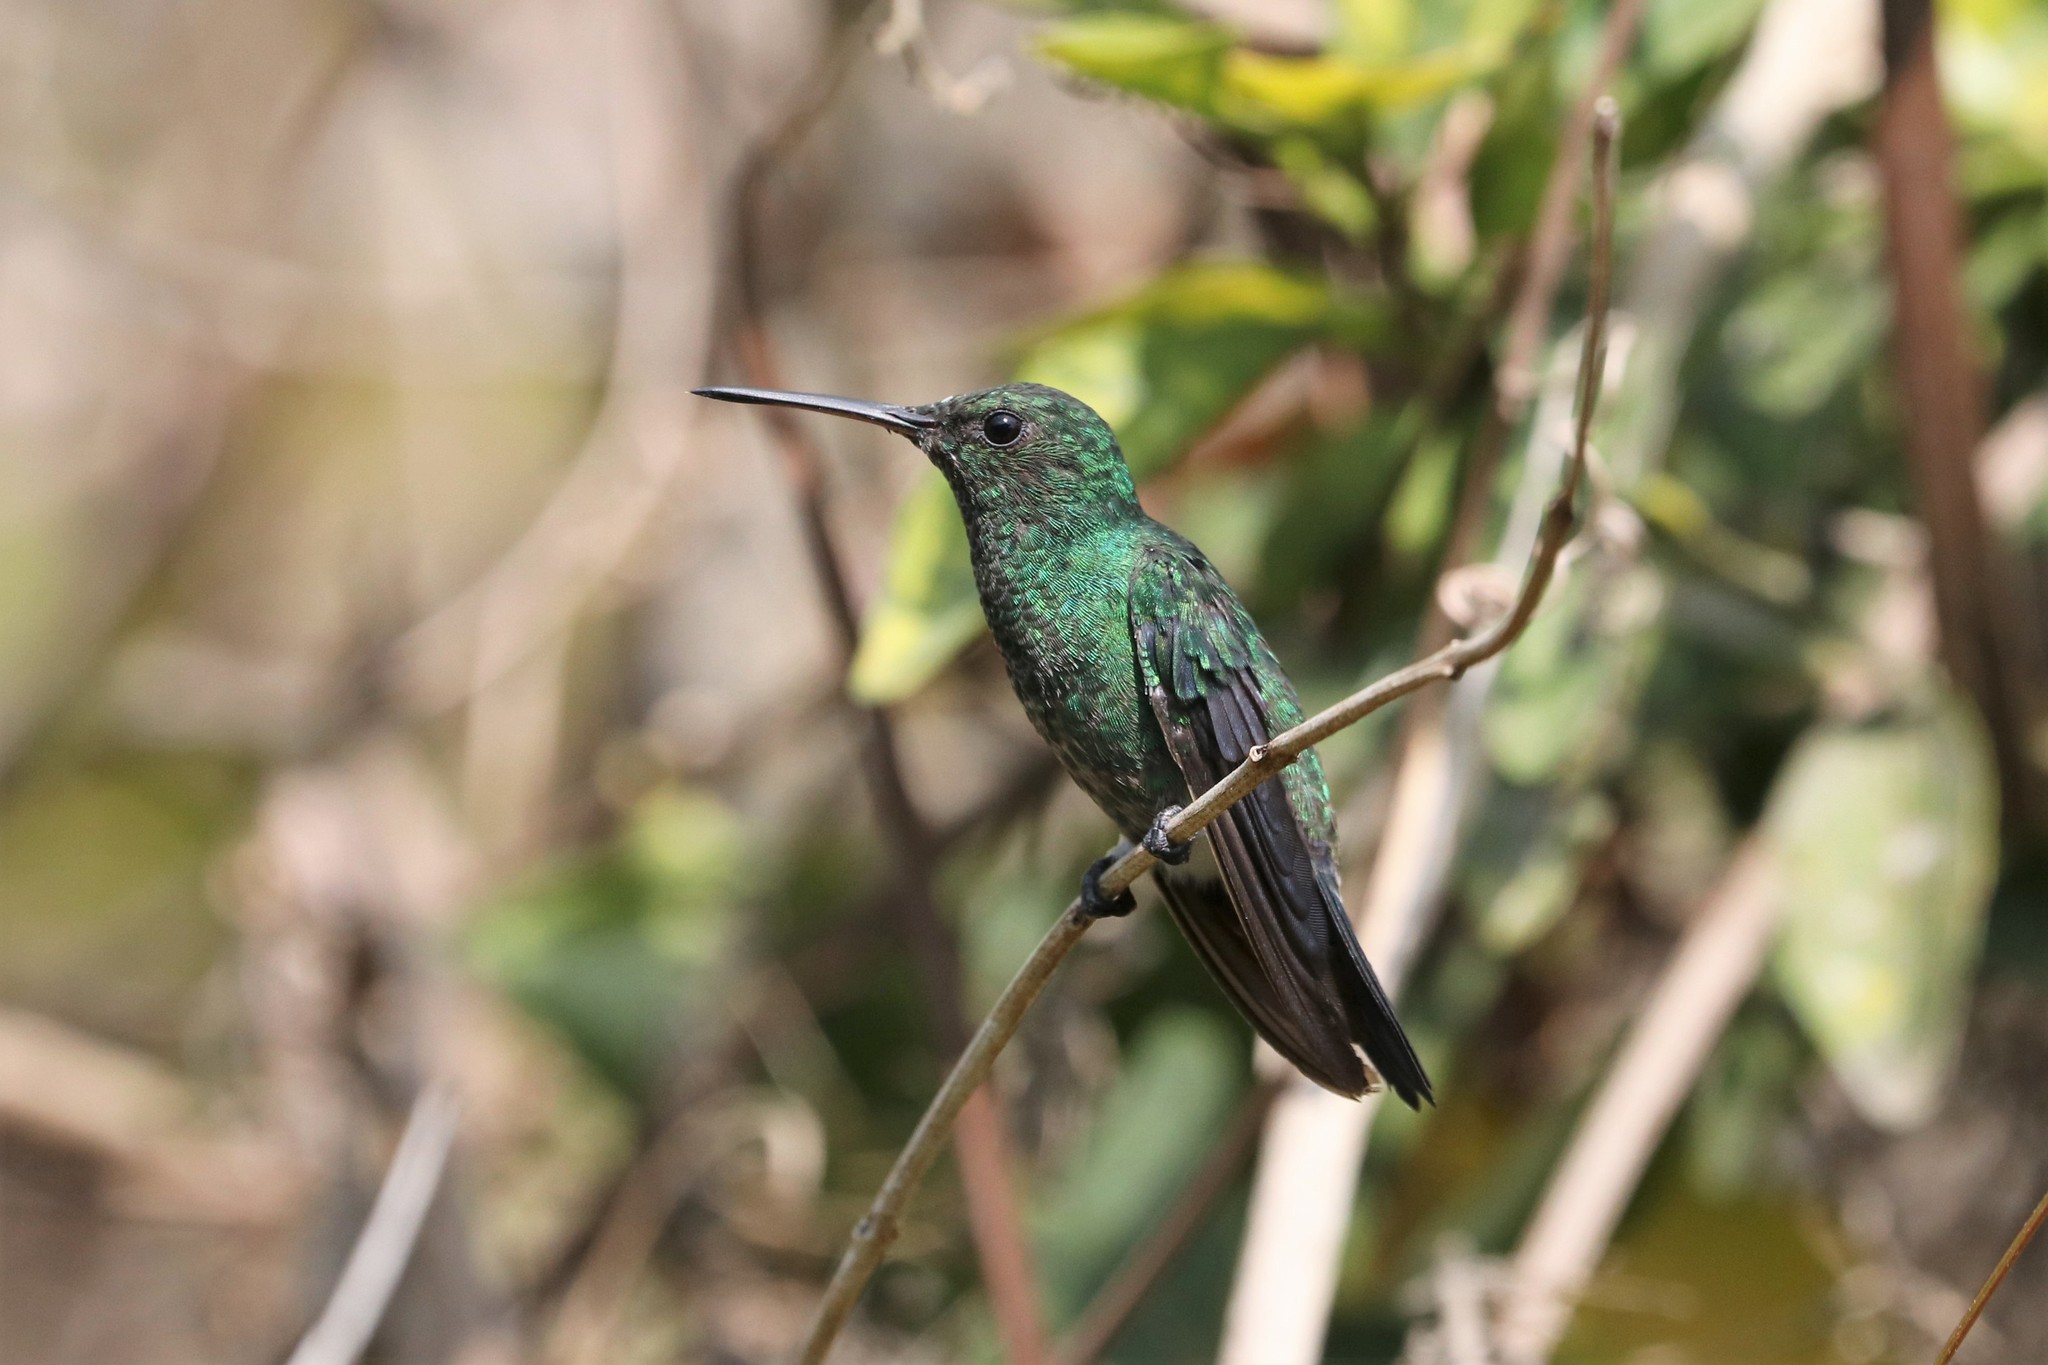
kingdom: Animalia
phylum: Chordata
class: Aves
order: Apodiformes
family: Trochilidae
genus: Saucerottia
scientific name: Saucerottia saucerottei
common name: Steely-vented hummingbird
